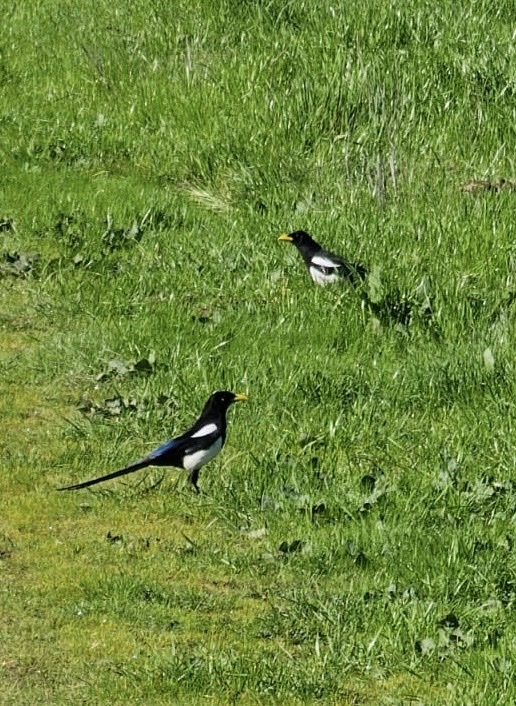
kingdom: Animalia
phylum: Chordata
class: Aves
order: Passeriformes
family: Corvidae
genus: Pica
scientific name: Pica nuttalli
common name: Yellow-billed magpie
